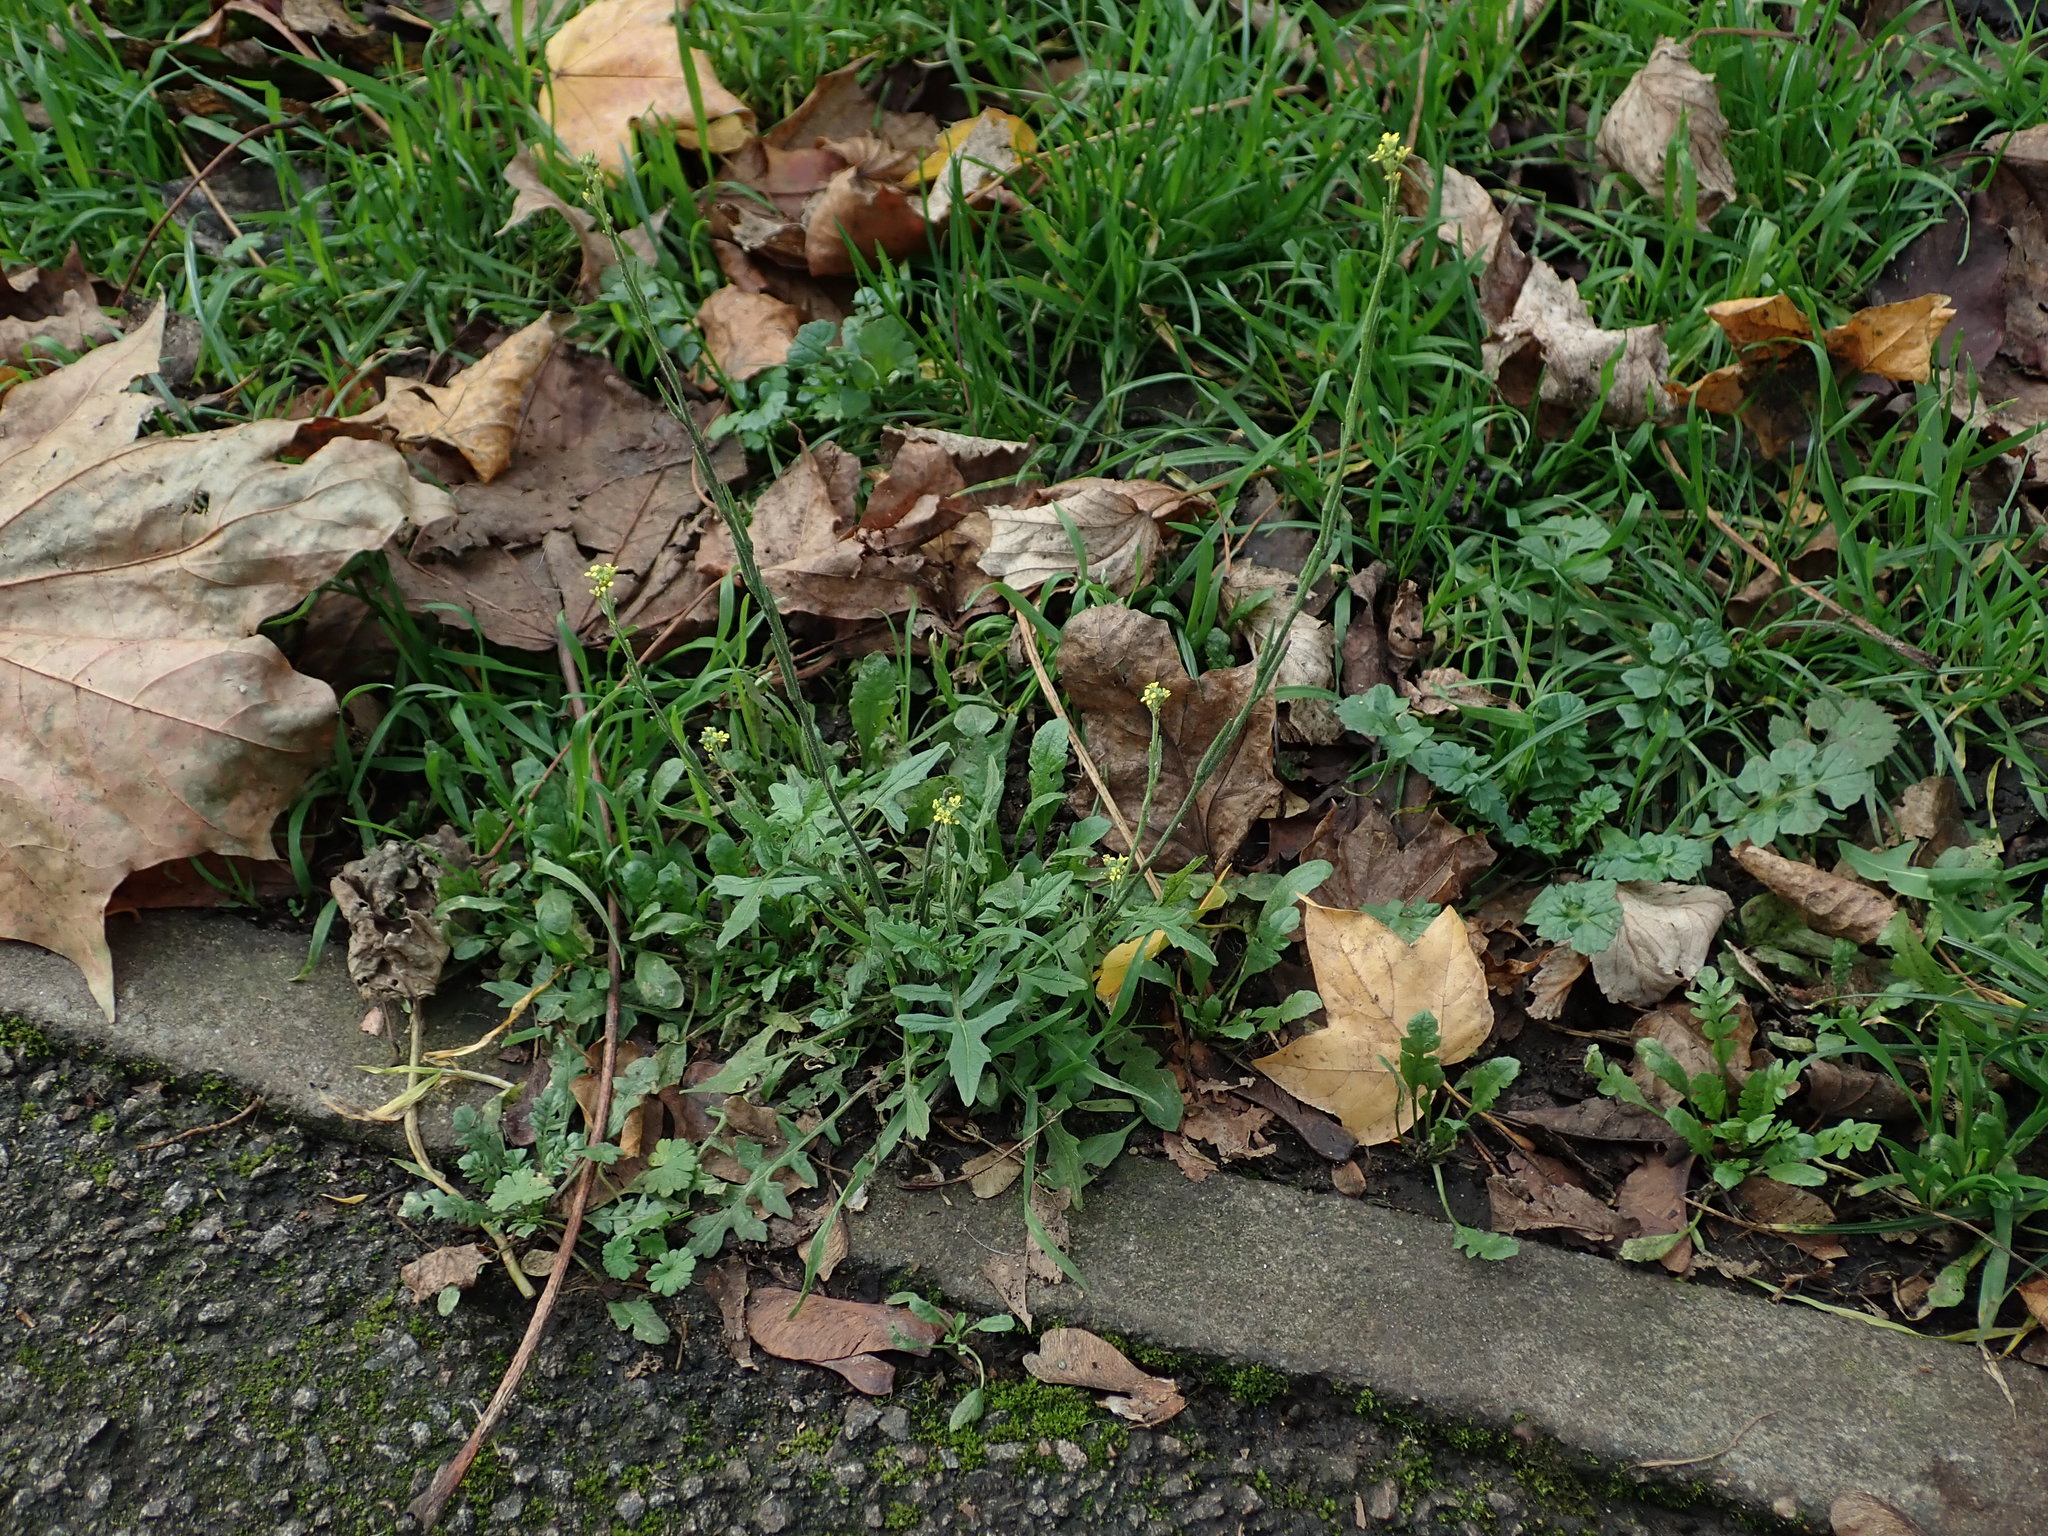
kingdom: Plantae
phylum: Tracheophyta
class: Magnoliopsida
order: Brassicales
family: Brassicaceae
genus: Sisymbrium
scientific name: Sisymbrium officinale
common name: Hedge mustard
